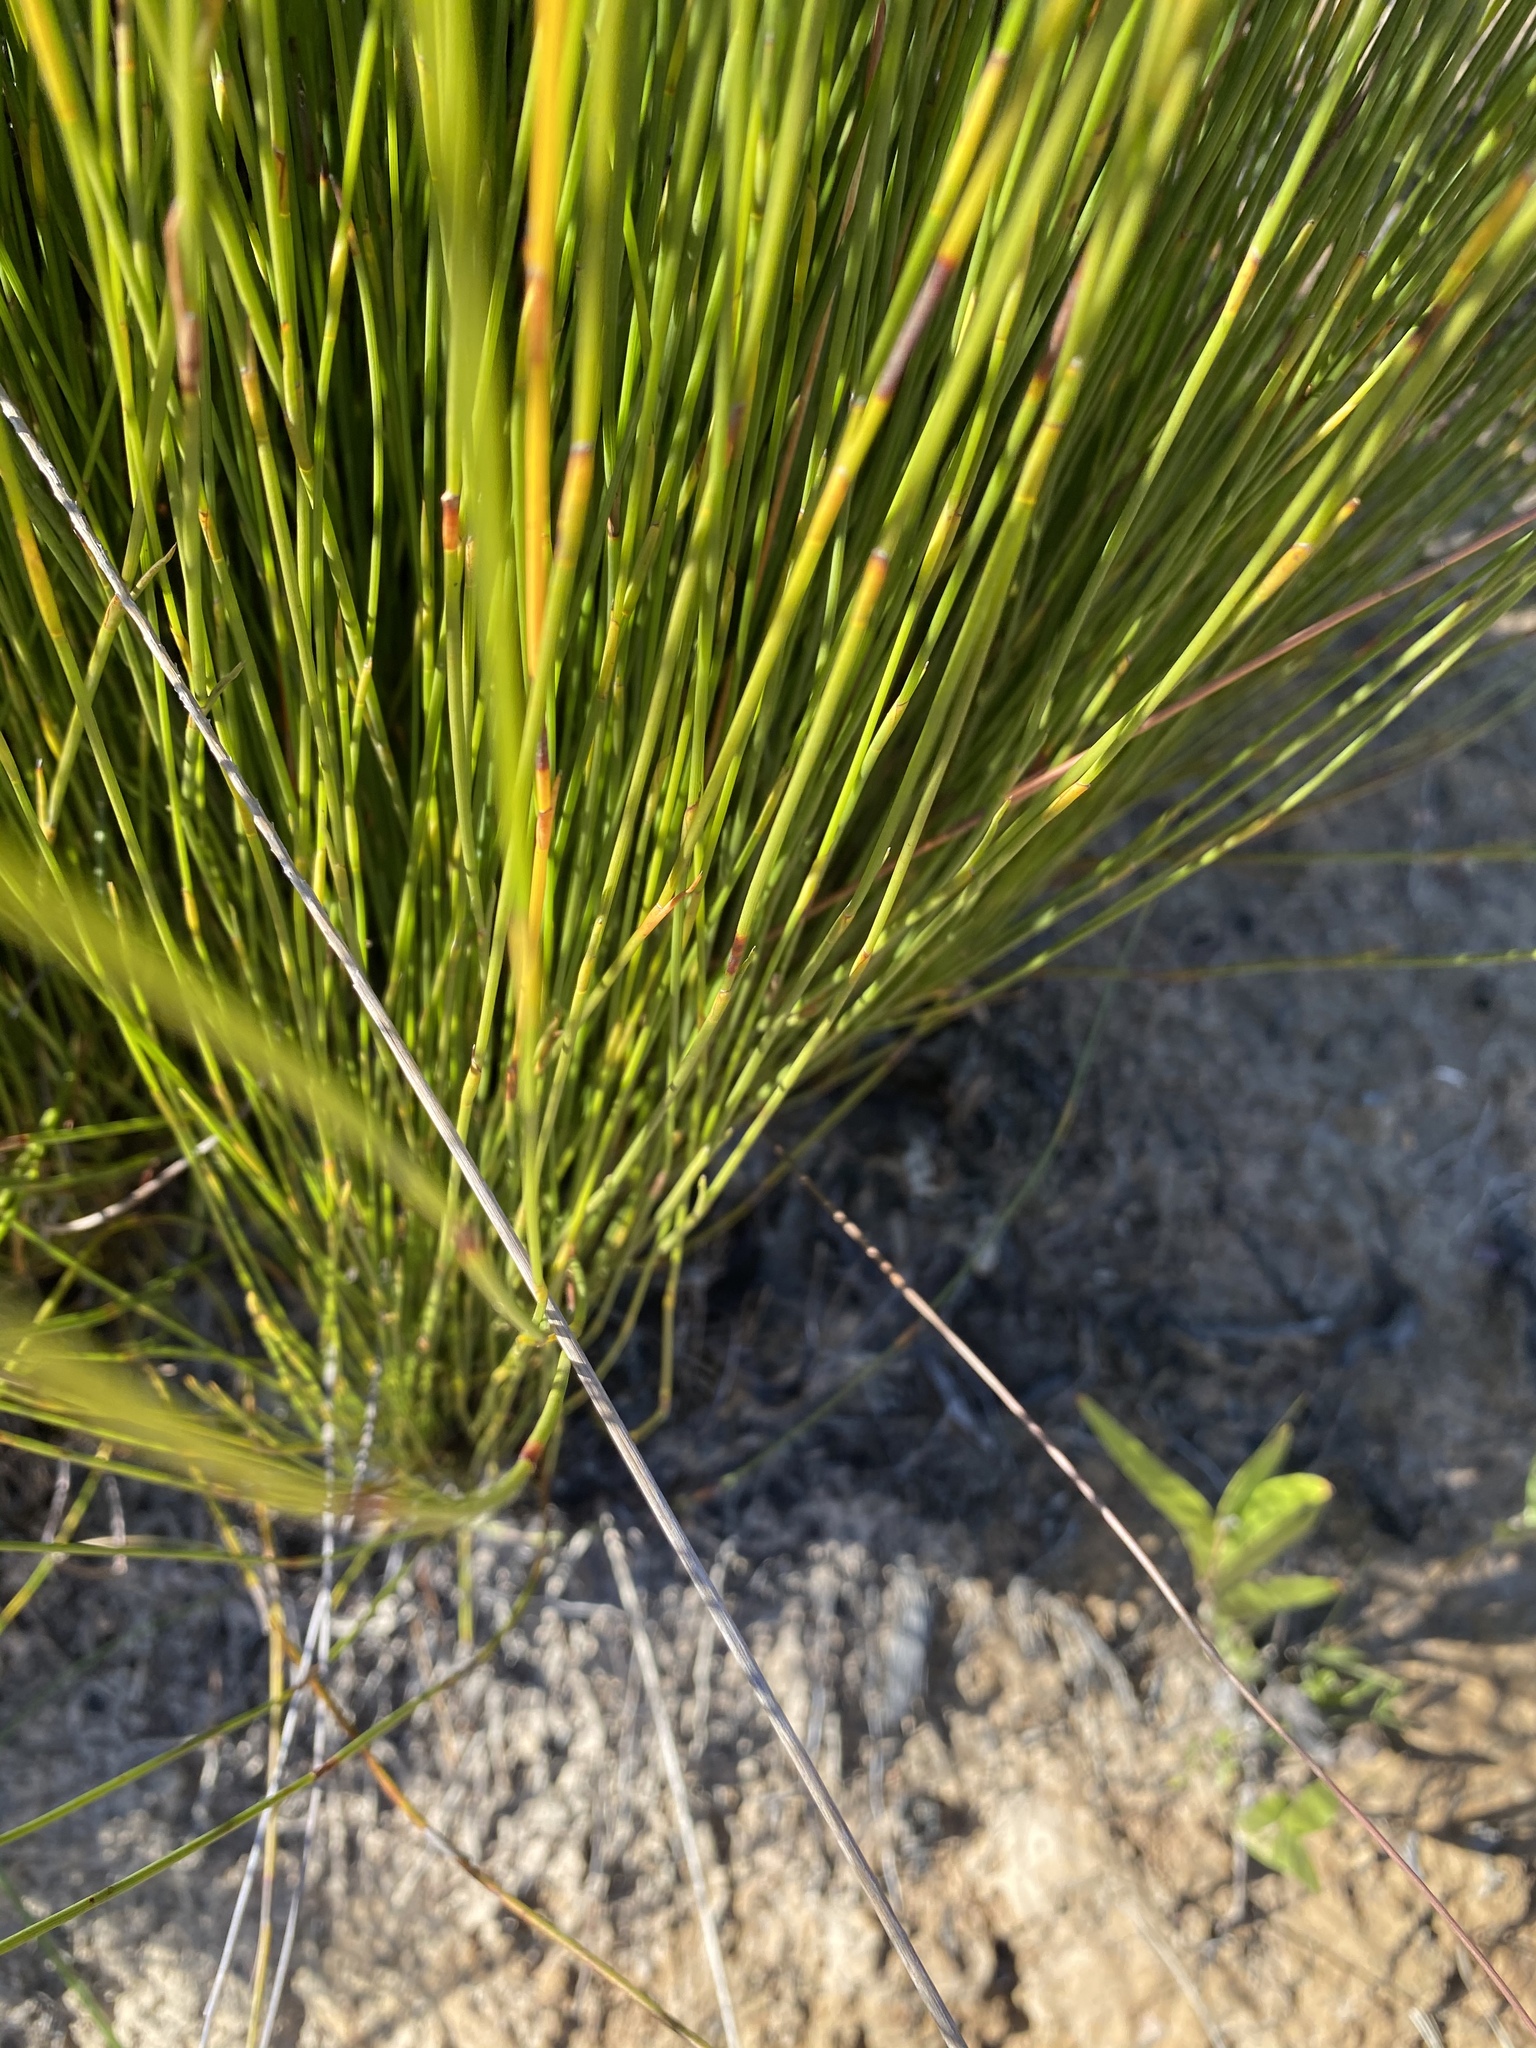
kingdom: Plantae
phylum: Tracheophyta
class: Liliopsida
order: Poales
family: Restionaceae
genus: Hypodiscus
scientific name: Hypodiscus striatus
